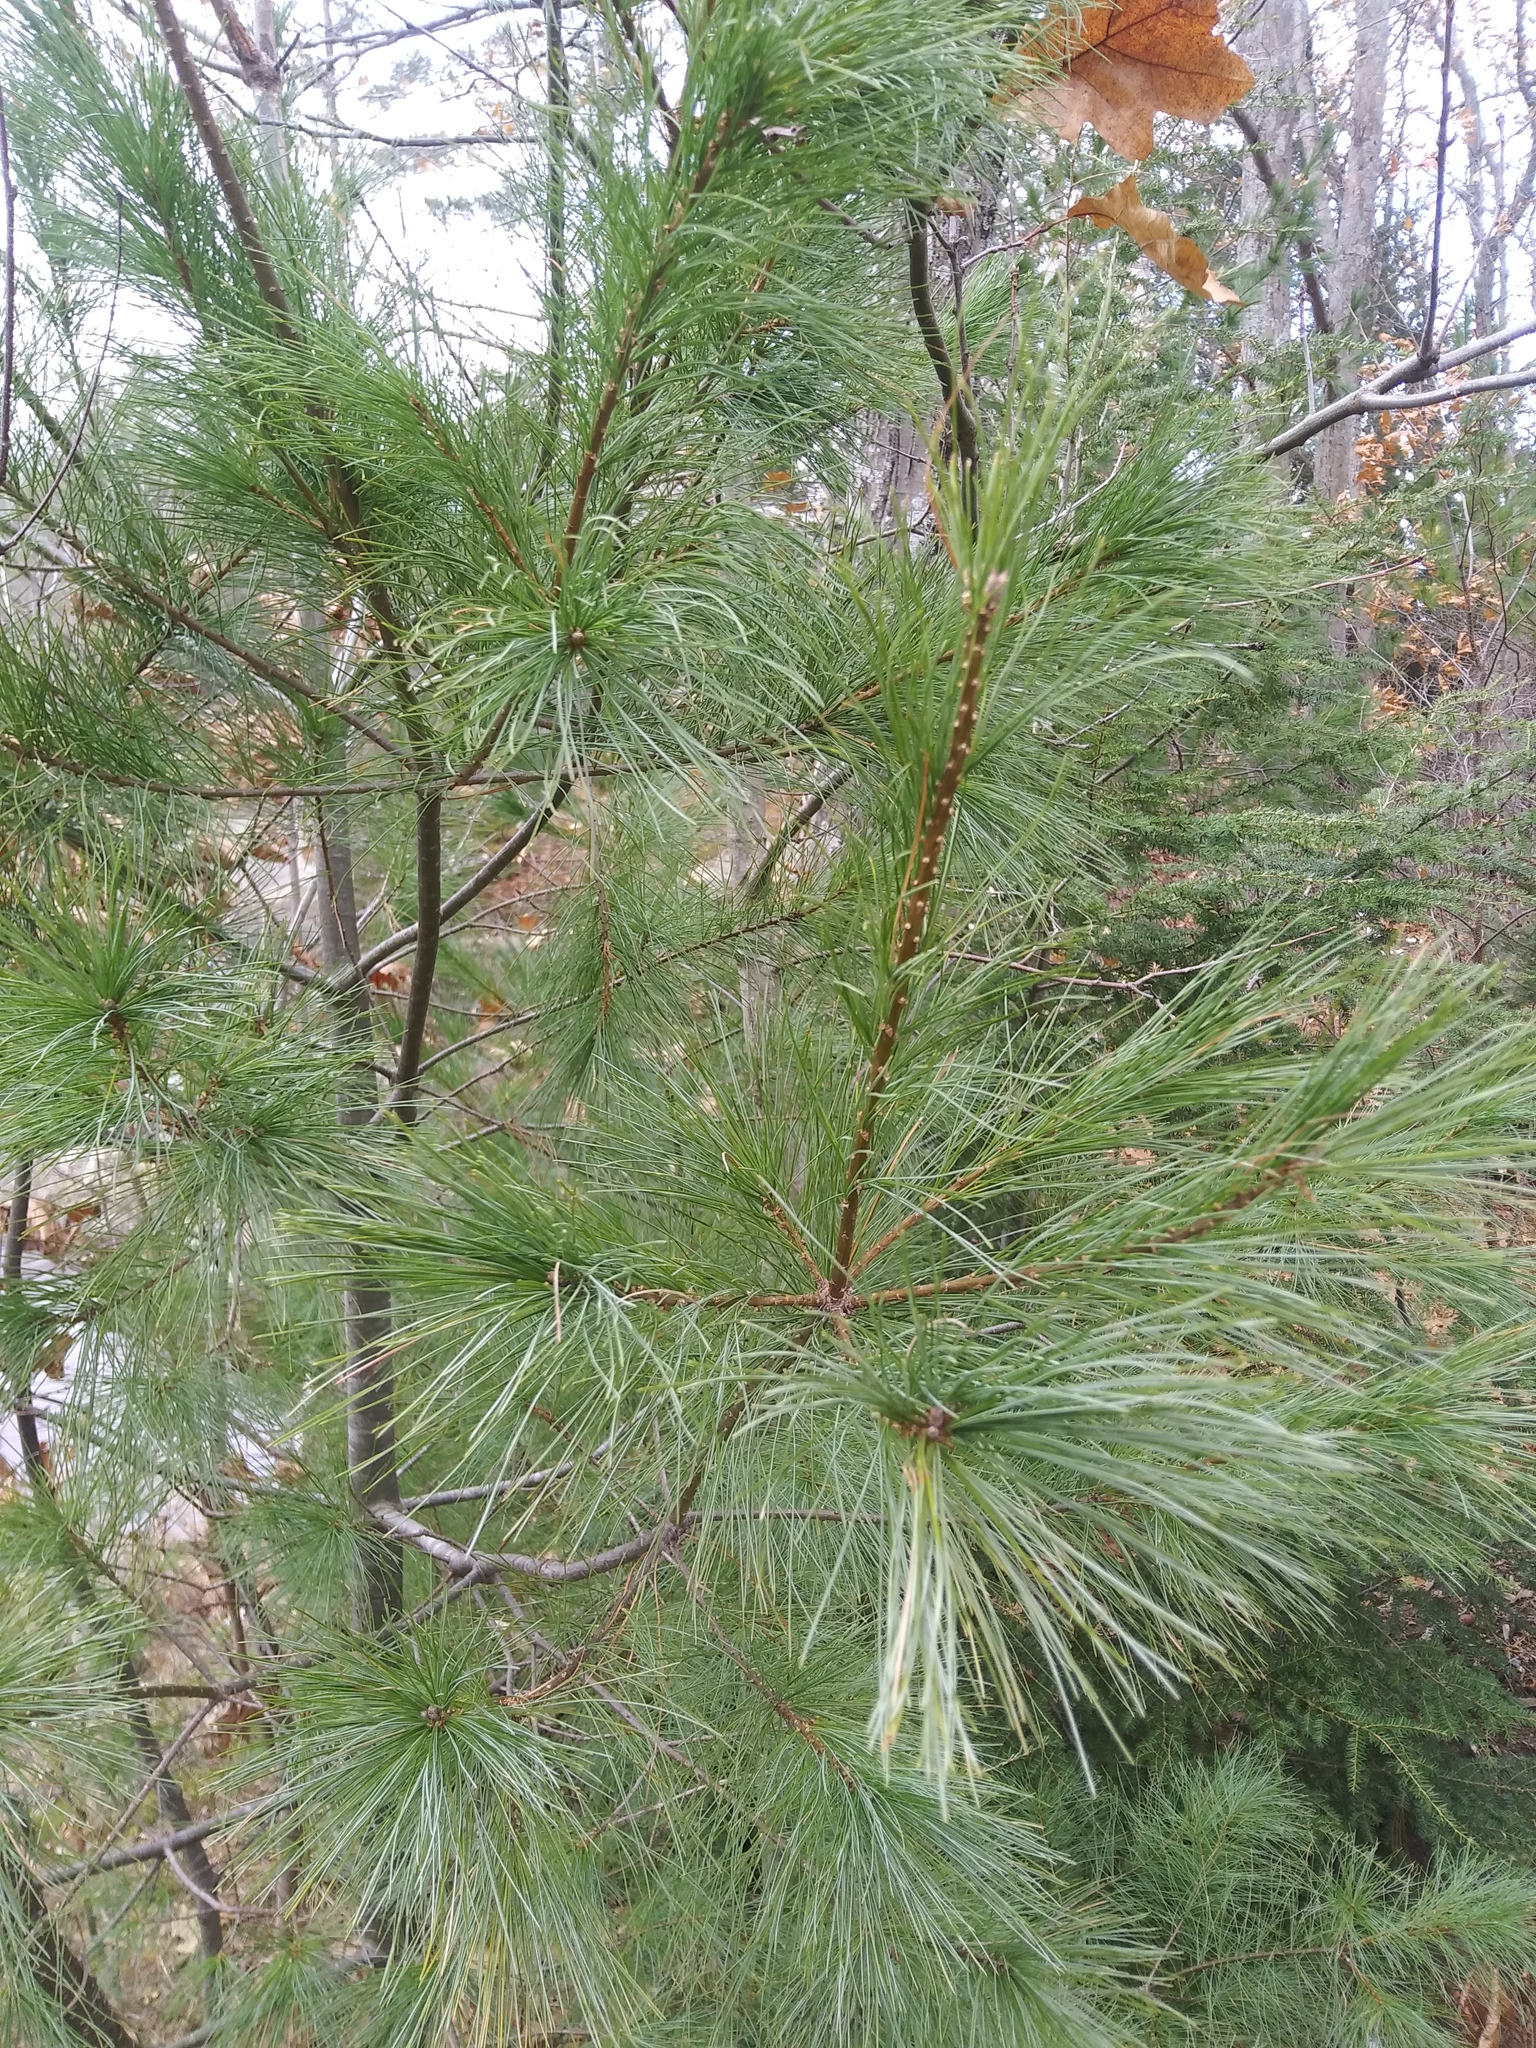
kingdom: Plantae
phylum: Tracheophyta
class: Pinopsida
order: Pinales
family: Pinaceae
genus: Pinus
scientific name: Pinus strobus
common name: Weymouth pine
